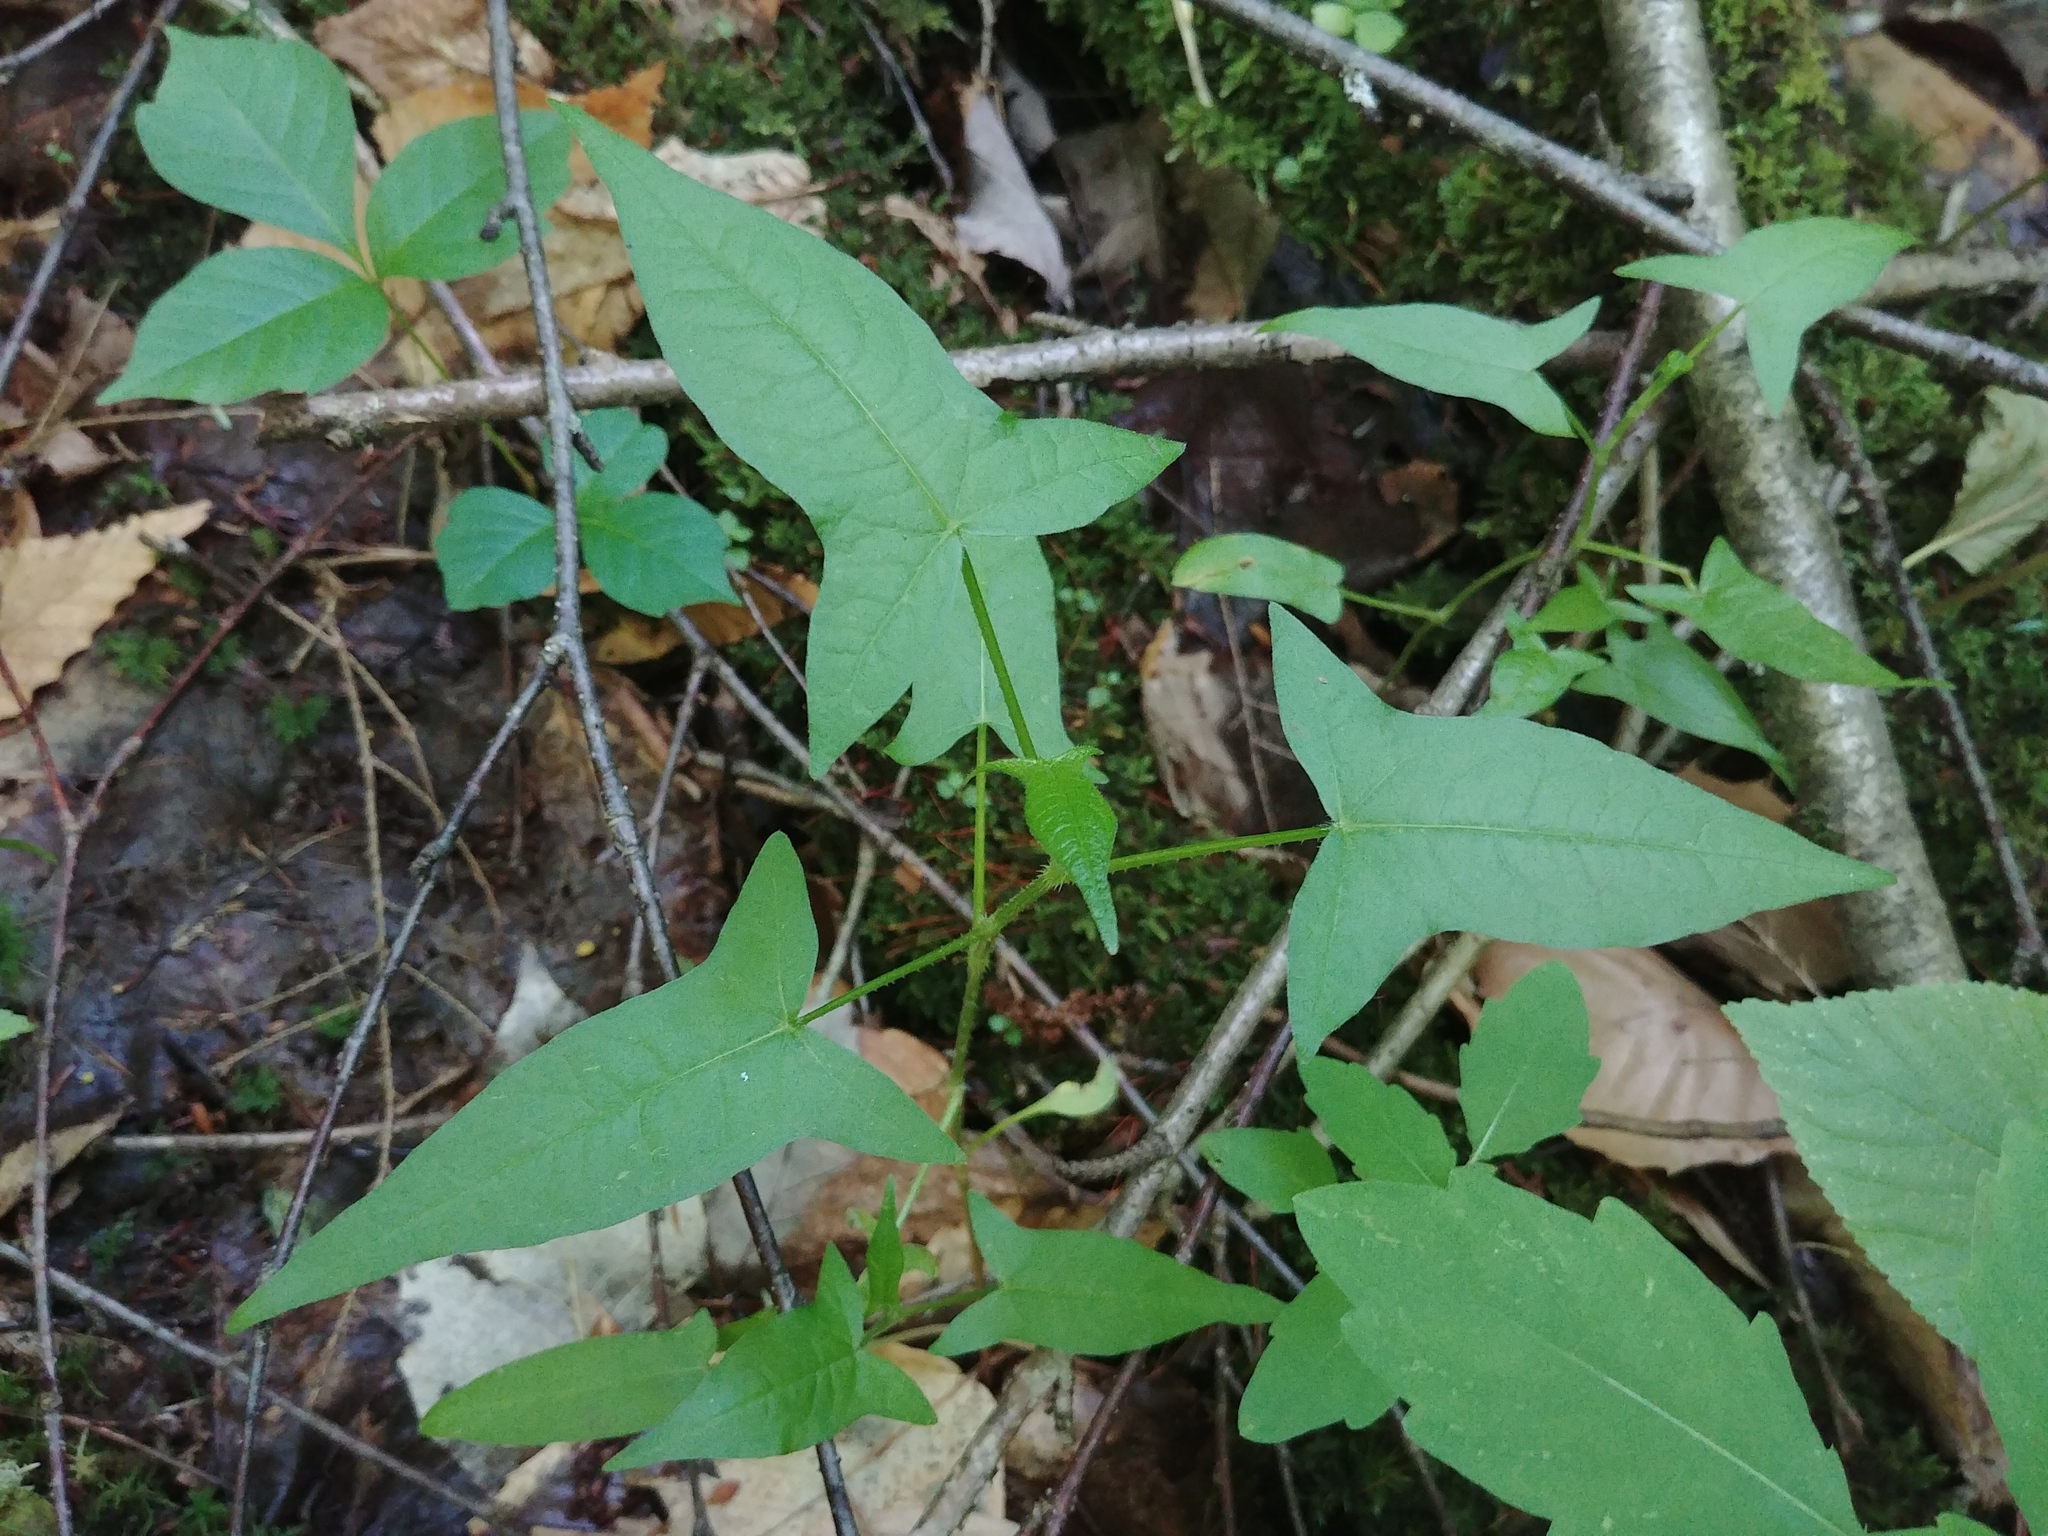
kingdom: Plantae
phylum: Tracheophyta
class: Magnoliopsida
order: Caryophyllales
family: Polygonaceae
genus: Persicaria
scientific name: Persicaria arifolia
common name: Halberd-leaved tear-thumb
